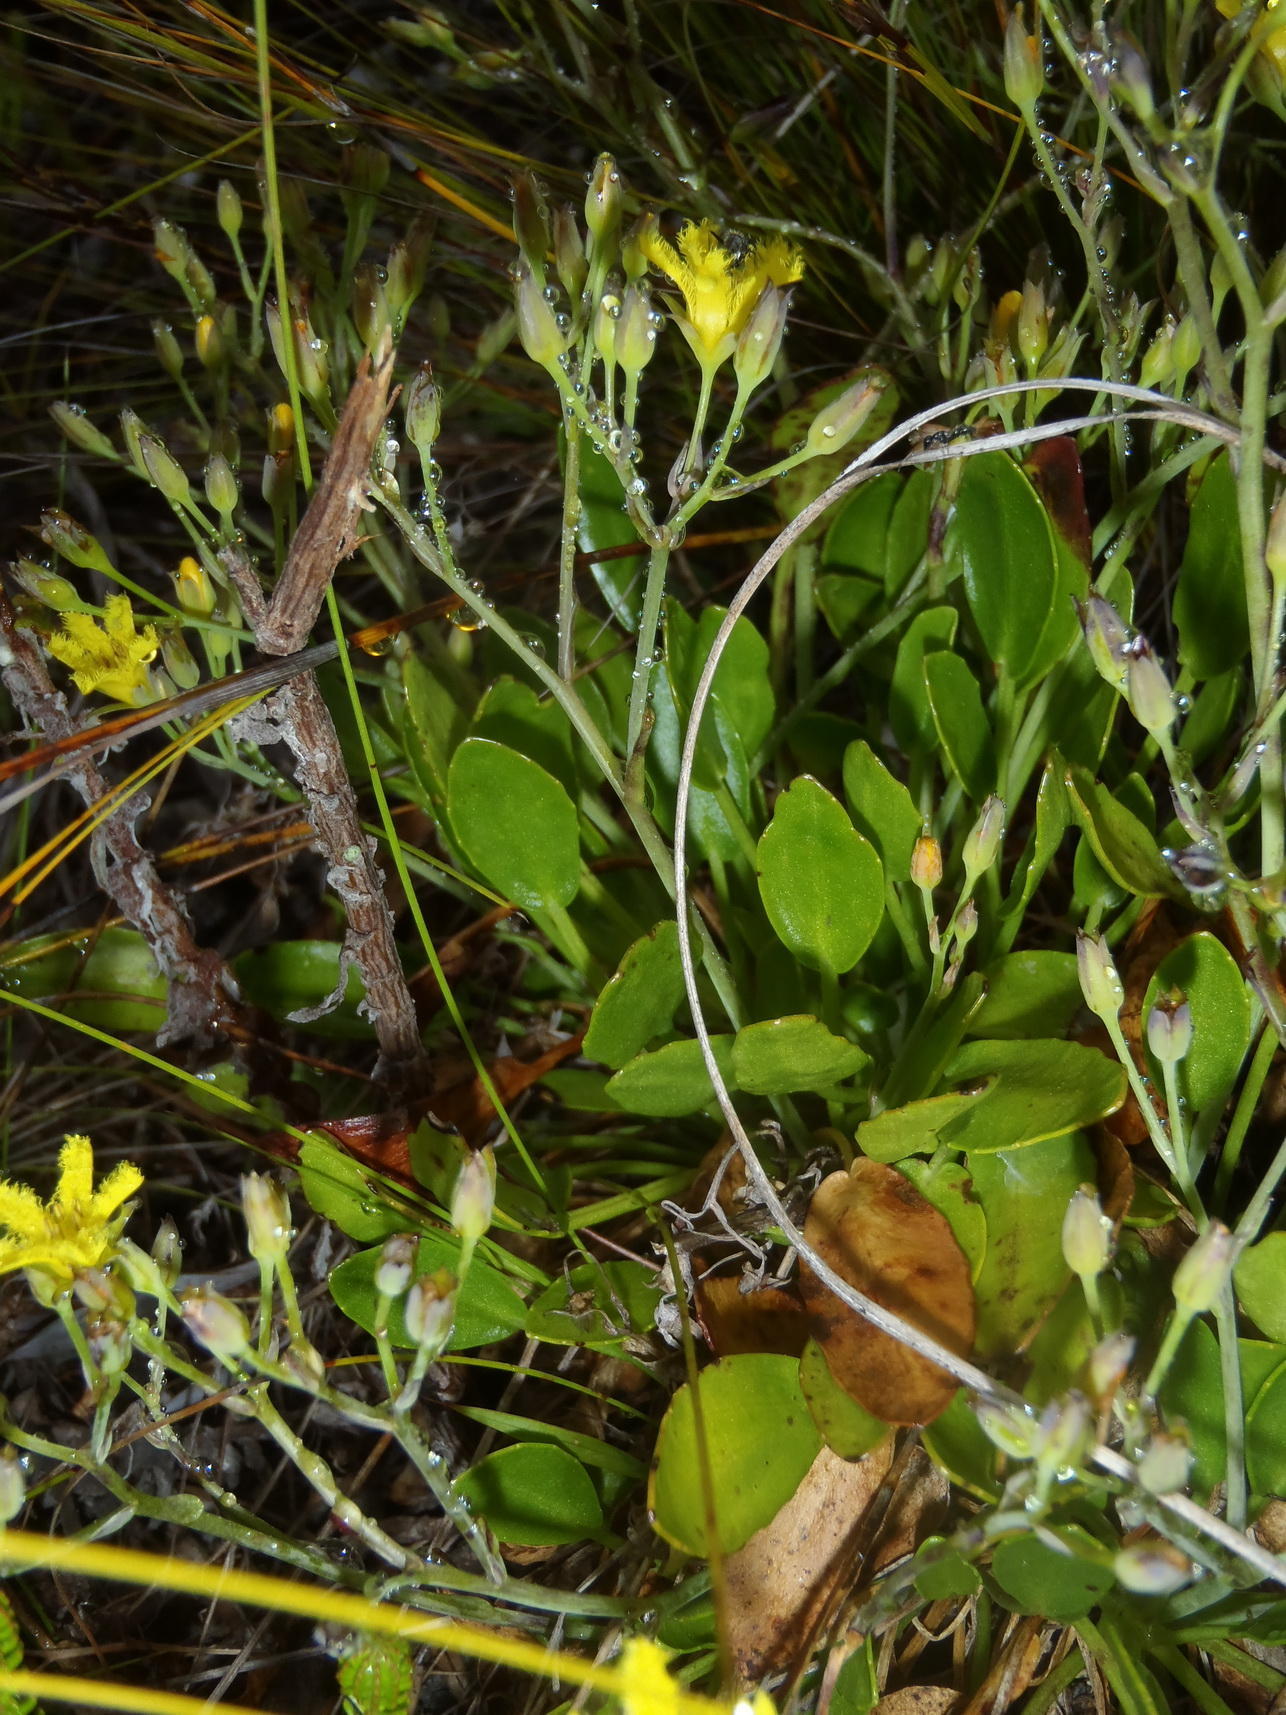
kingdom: Plantae
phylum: Tracheophyta
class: Magnoliopsida
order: Asterales
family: Menyanthaceae
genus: Villarsia
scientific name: Villarsia capensis
